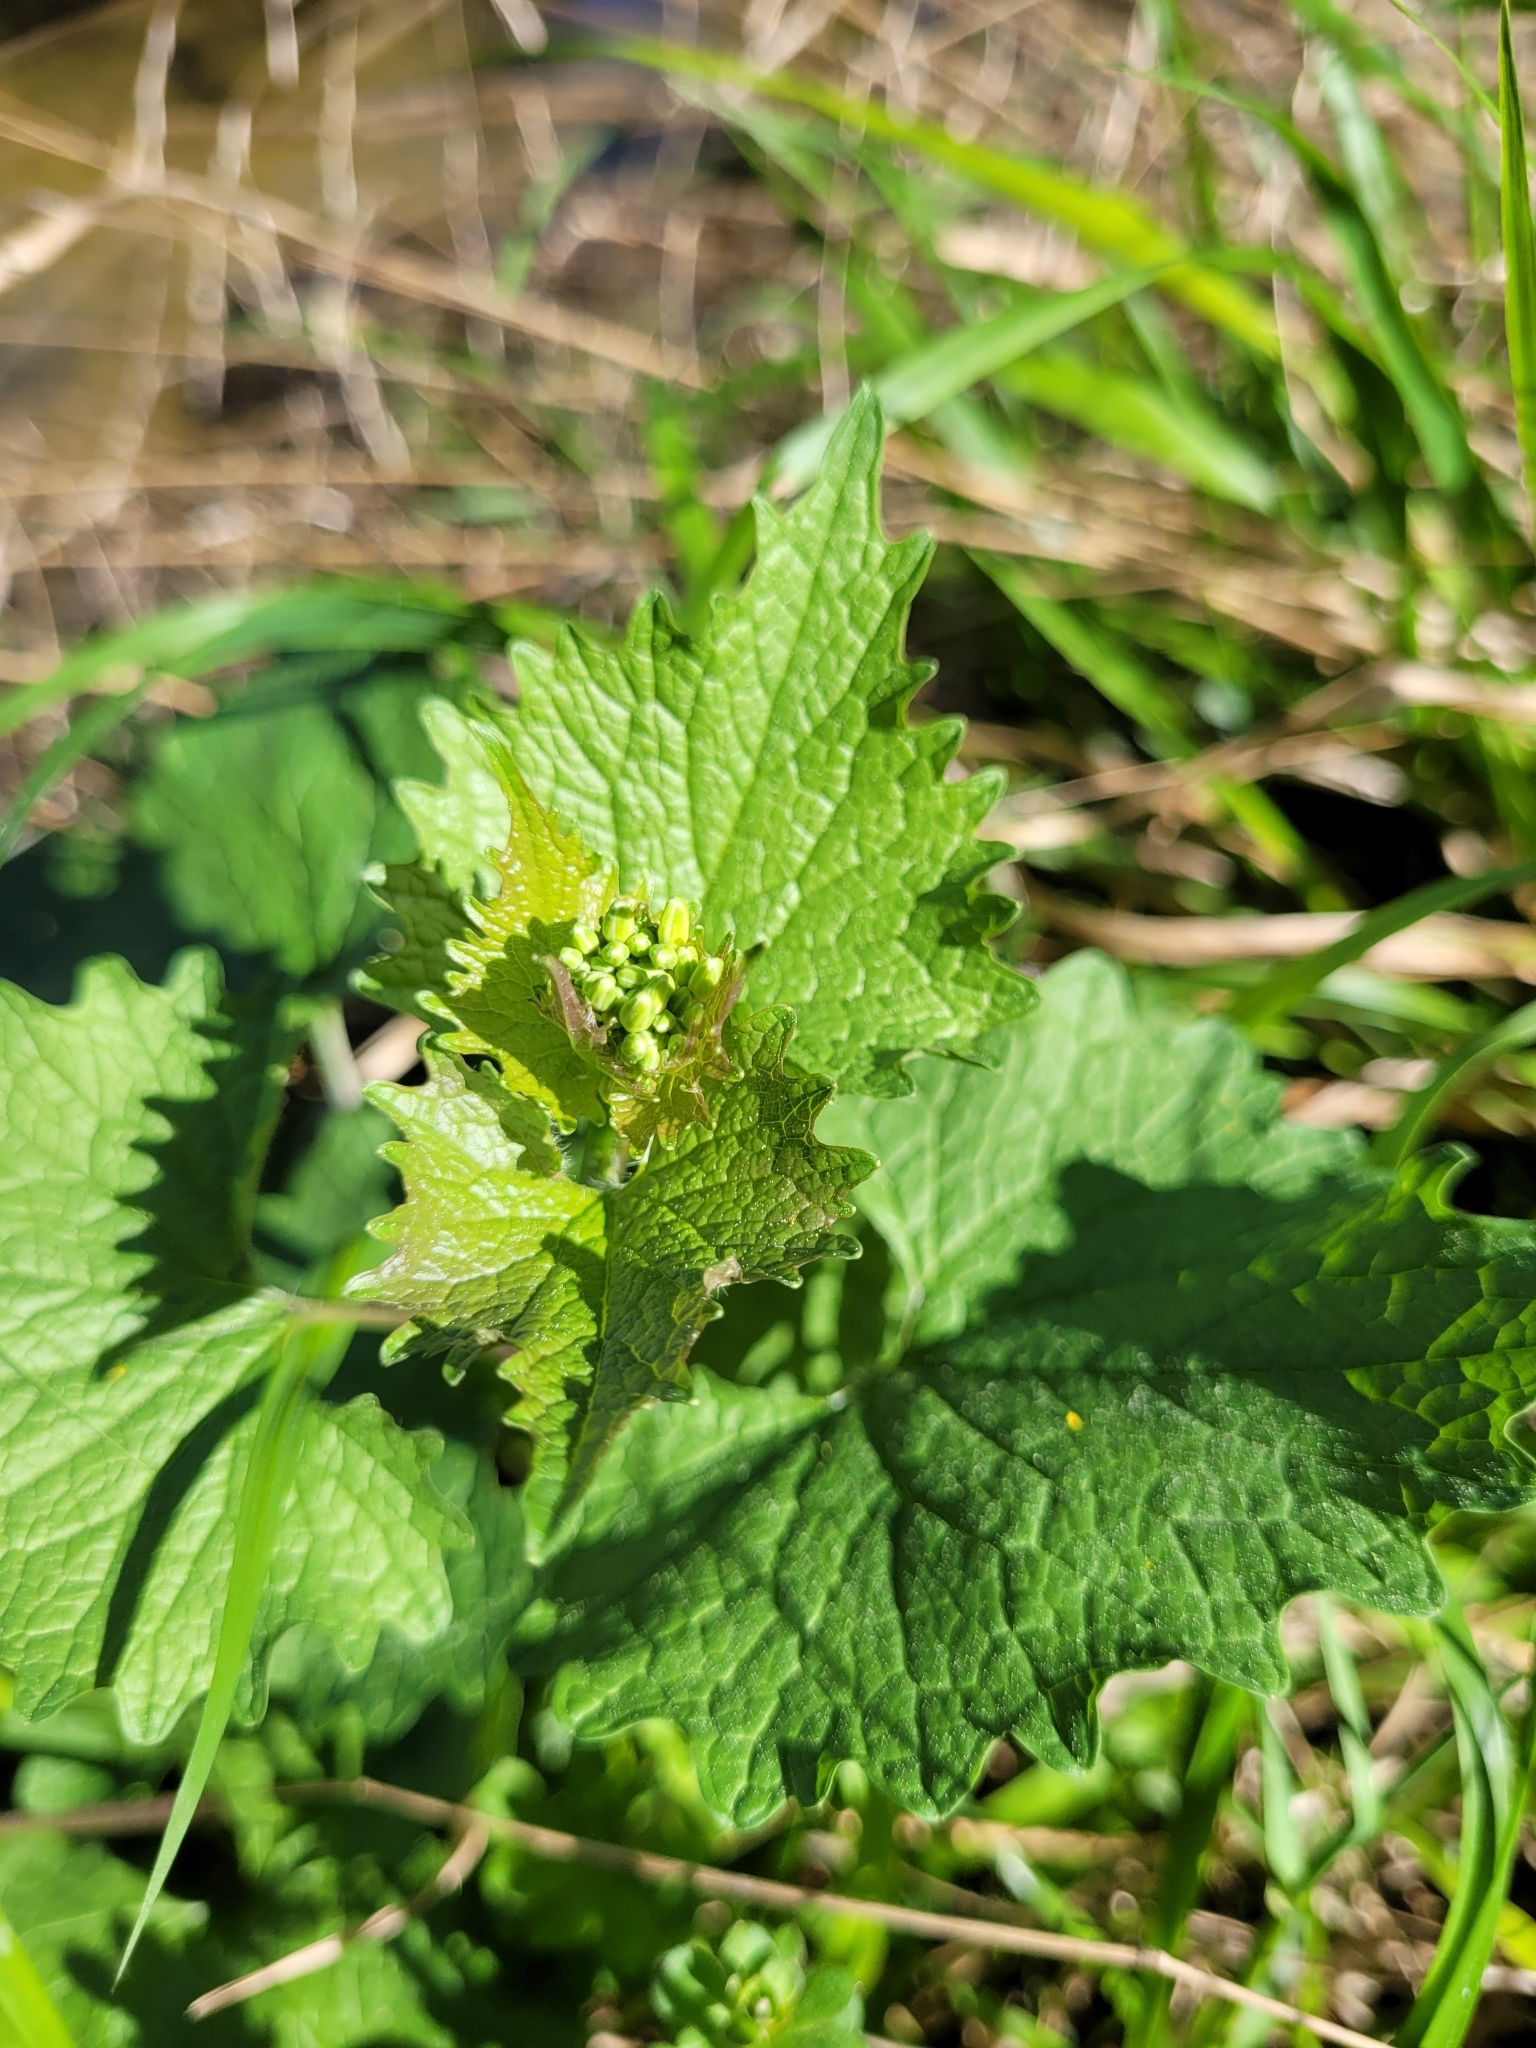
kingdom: Plantae
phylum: Tracheophyta
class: Magnoliopsida
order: Brassicales
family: Brassicaceae
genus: Alliaria
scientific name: Alliaria petiolata
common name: Garlic mustard
